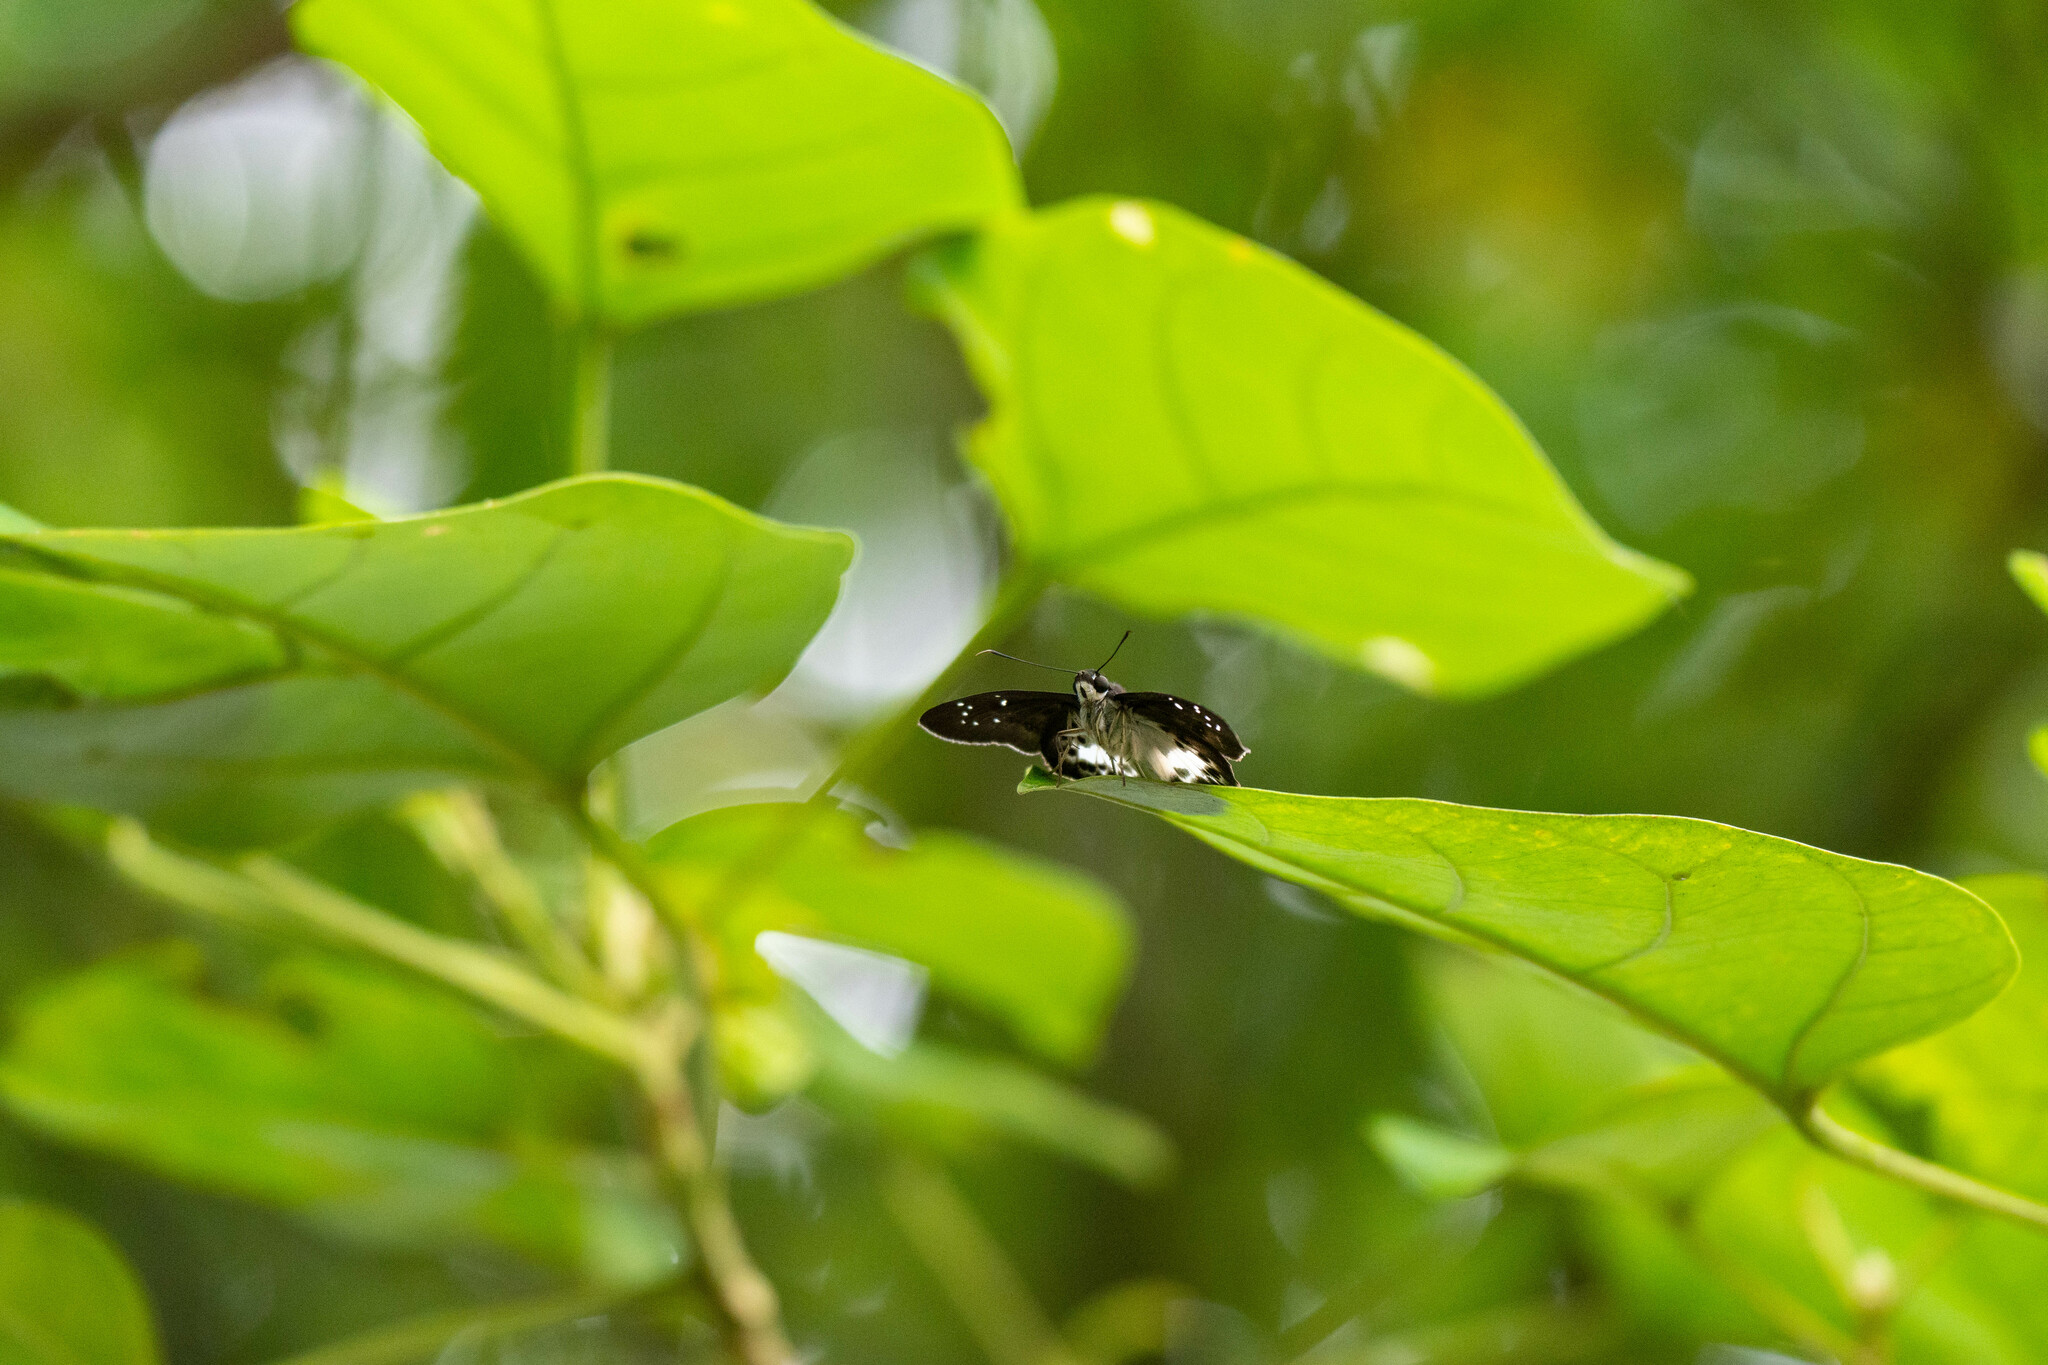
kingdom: Animalia
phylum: Arthropoda
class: Insecta
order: Lepidoptera
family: Hesperiidae
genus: Tagiades
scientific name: Tagiades menaka
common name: Dark-edged snow flat
